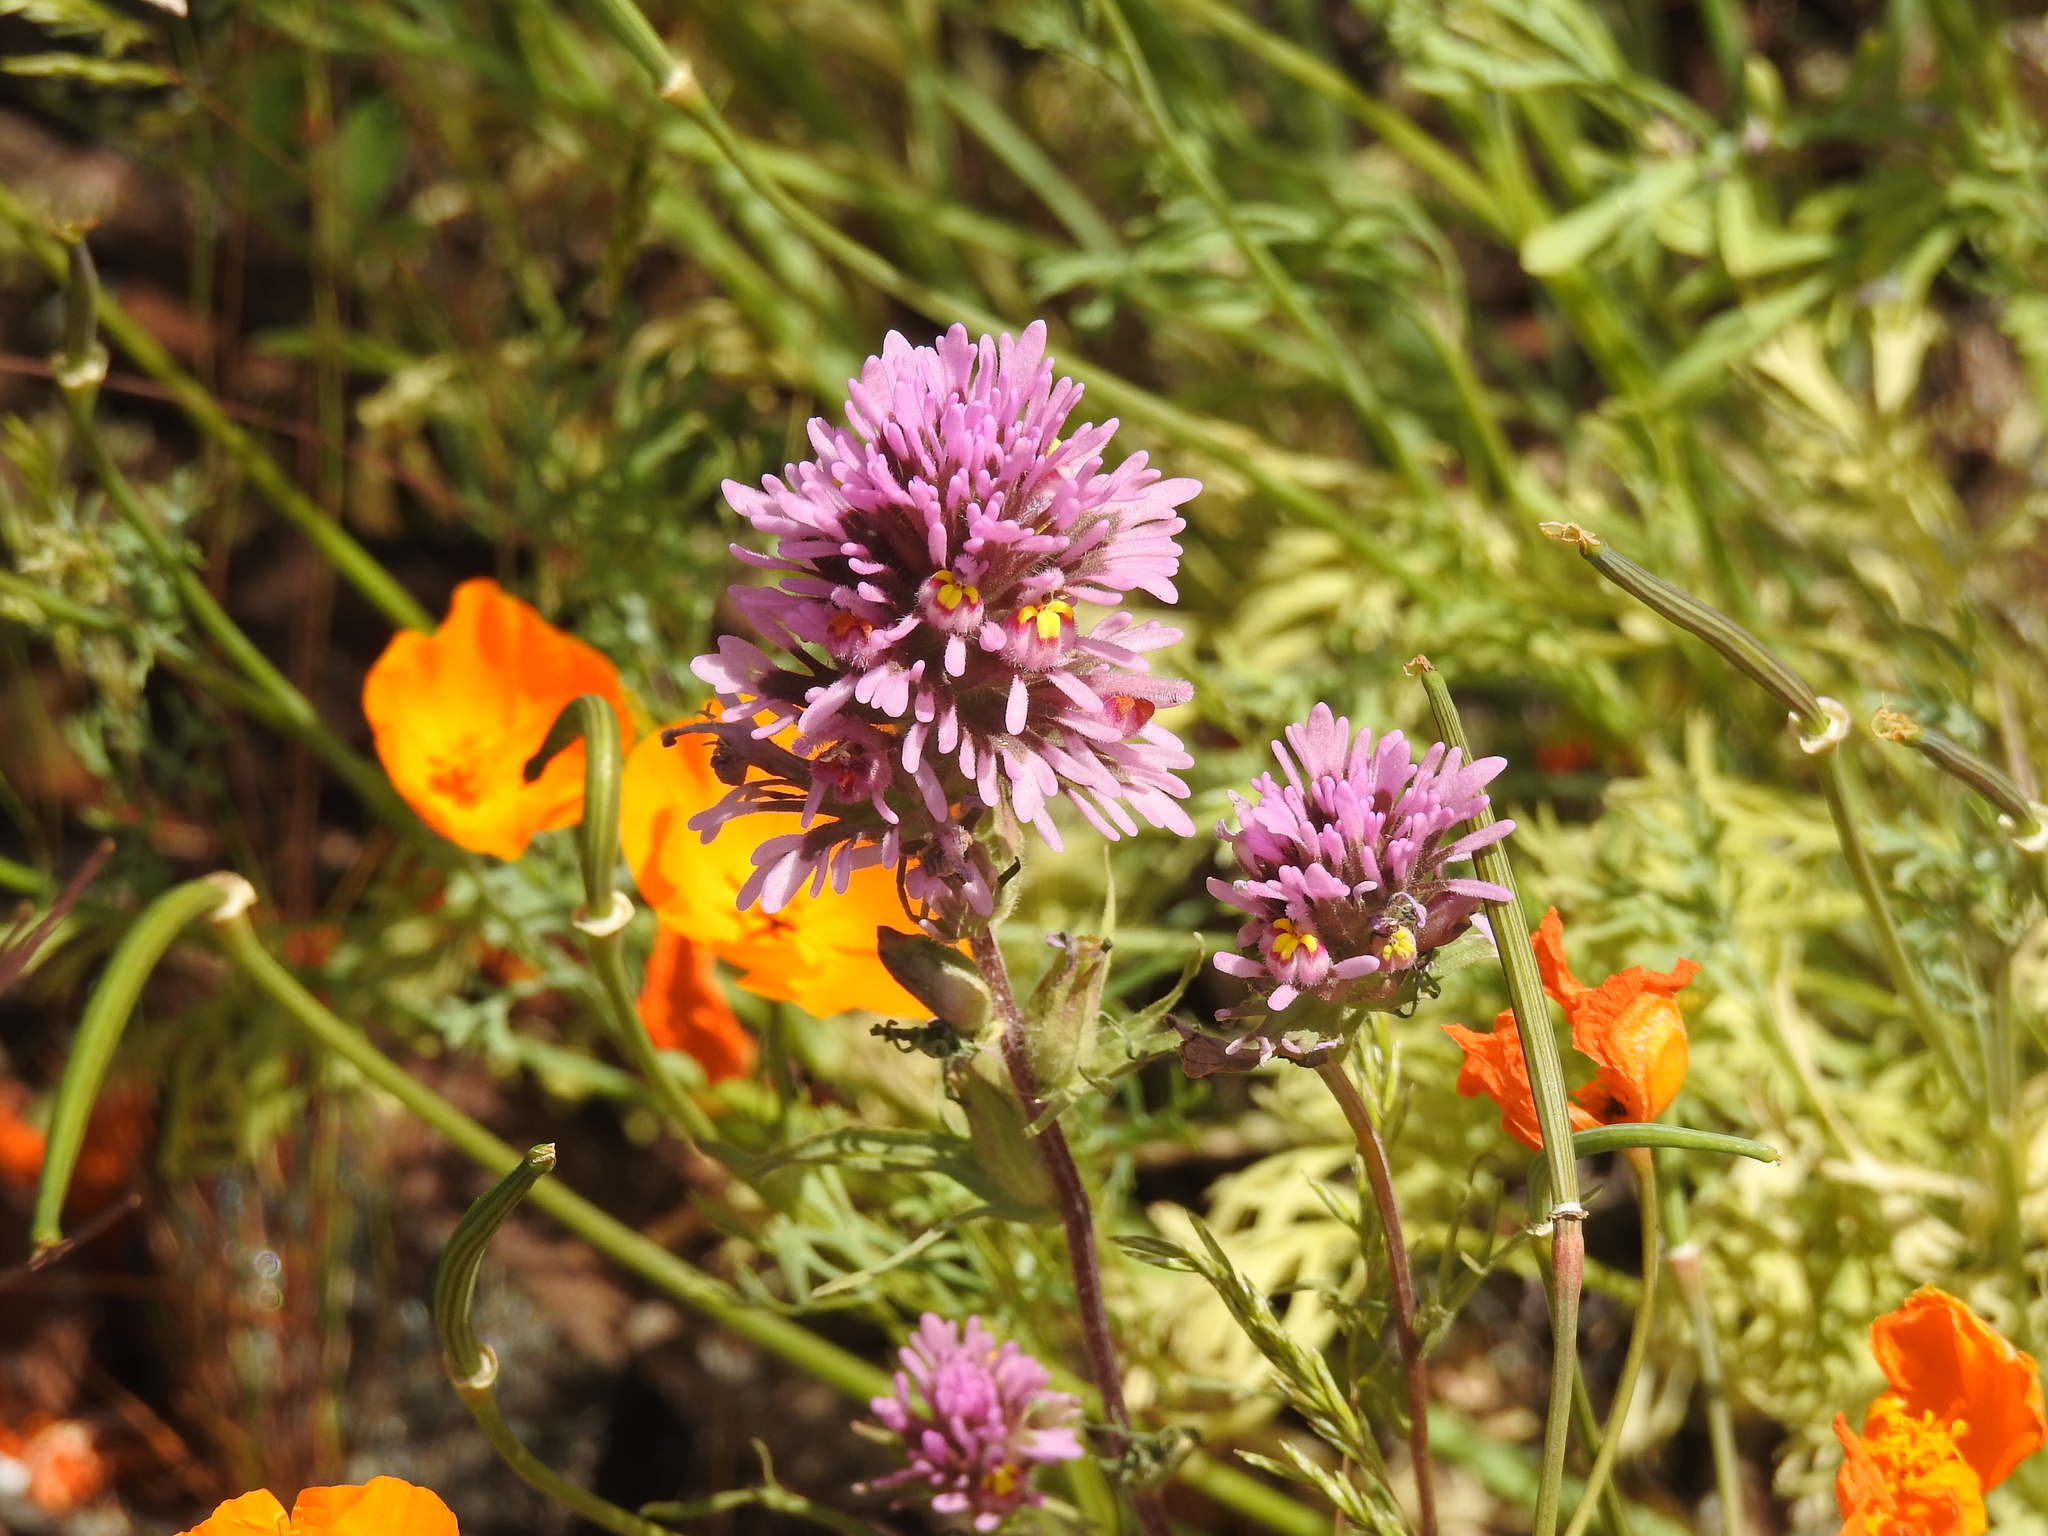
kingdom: Plantae
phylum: Tracheophyta
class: Magnoliopsida
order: Lamiales
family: Orobanchaceae
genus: Castilleja
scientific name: Castilleja exserta
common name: Purple owl-clover
